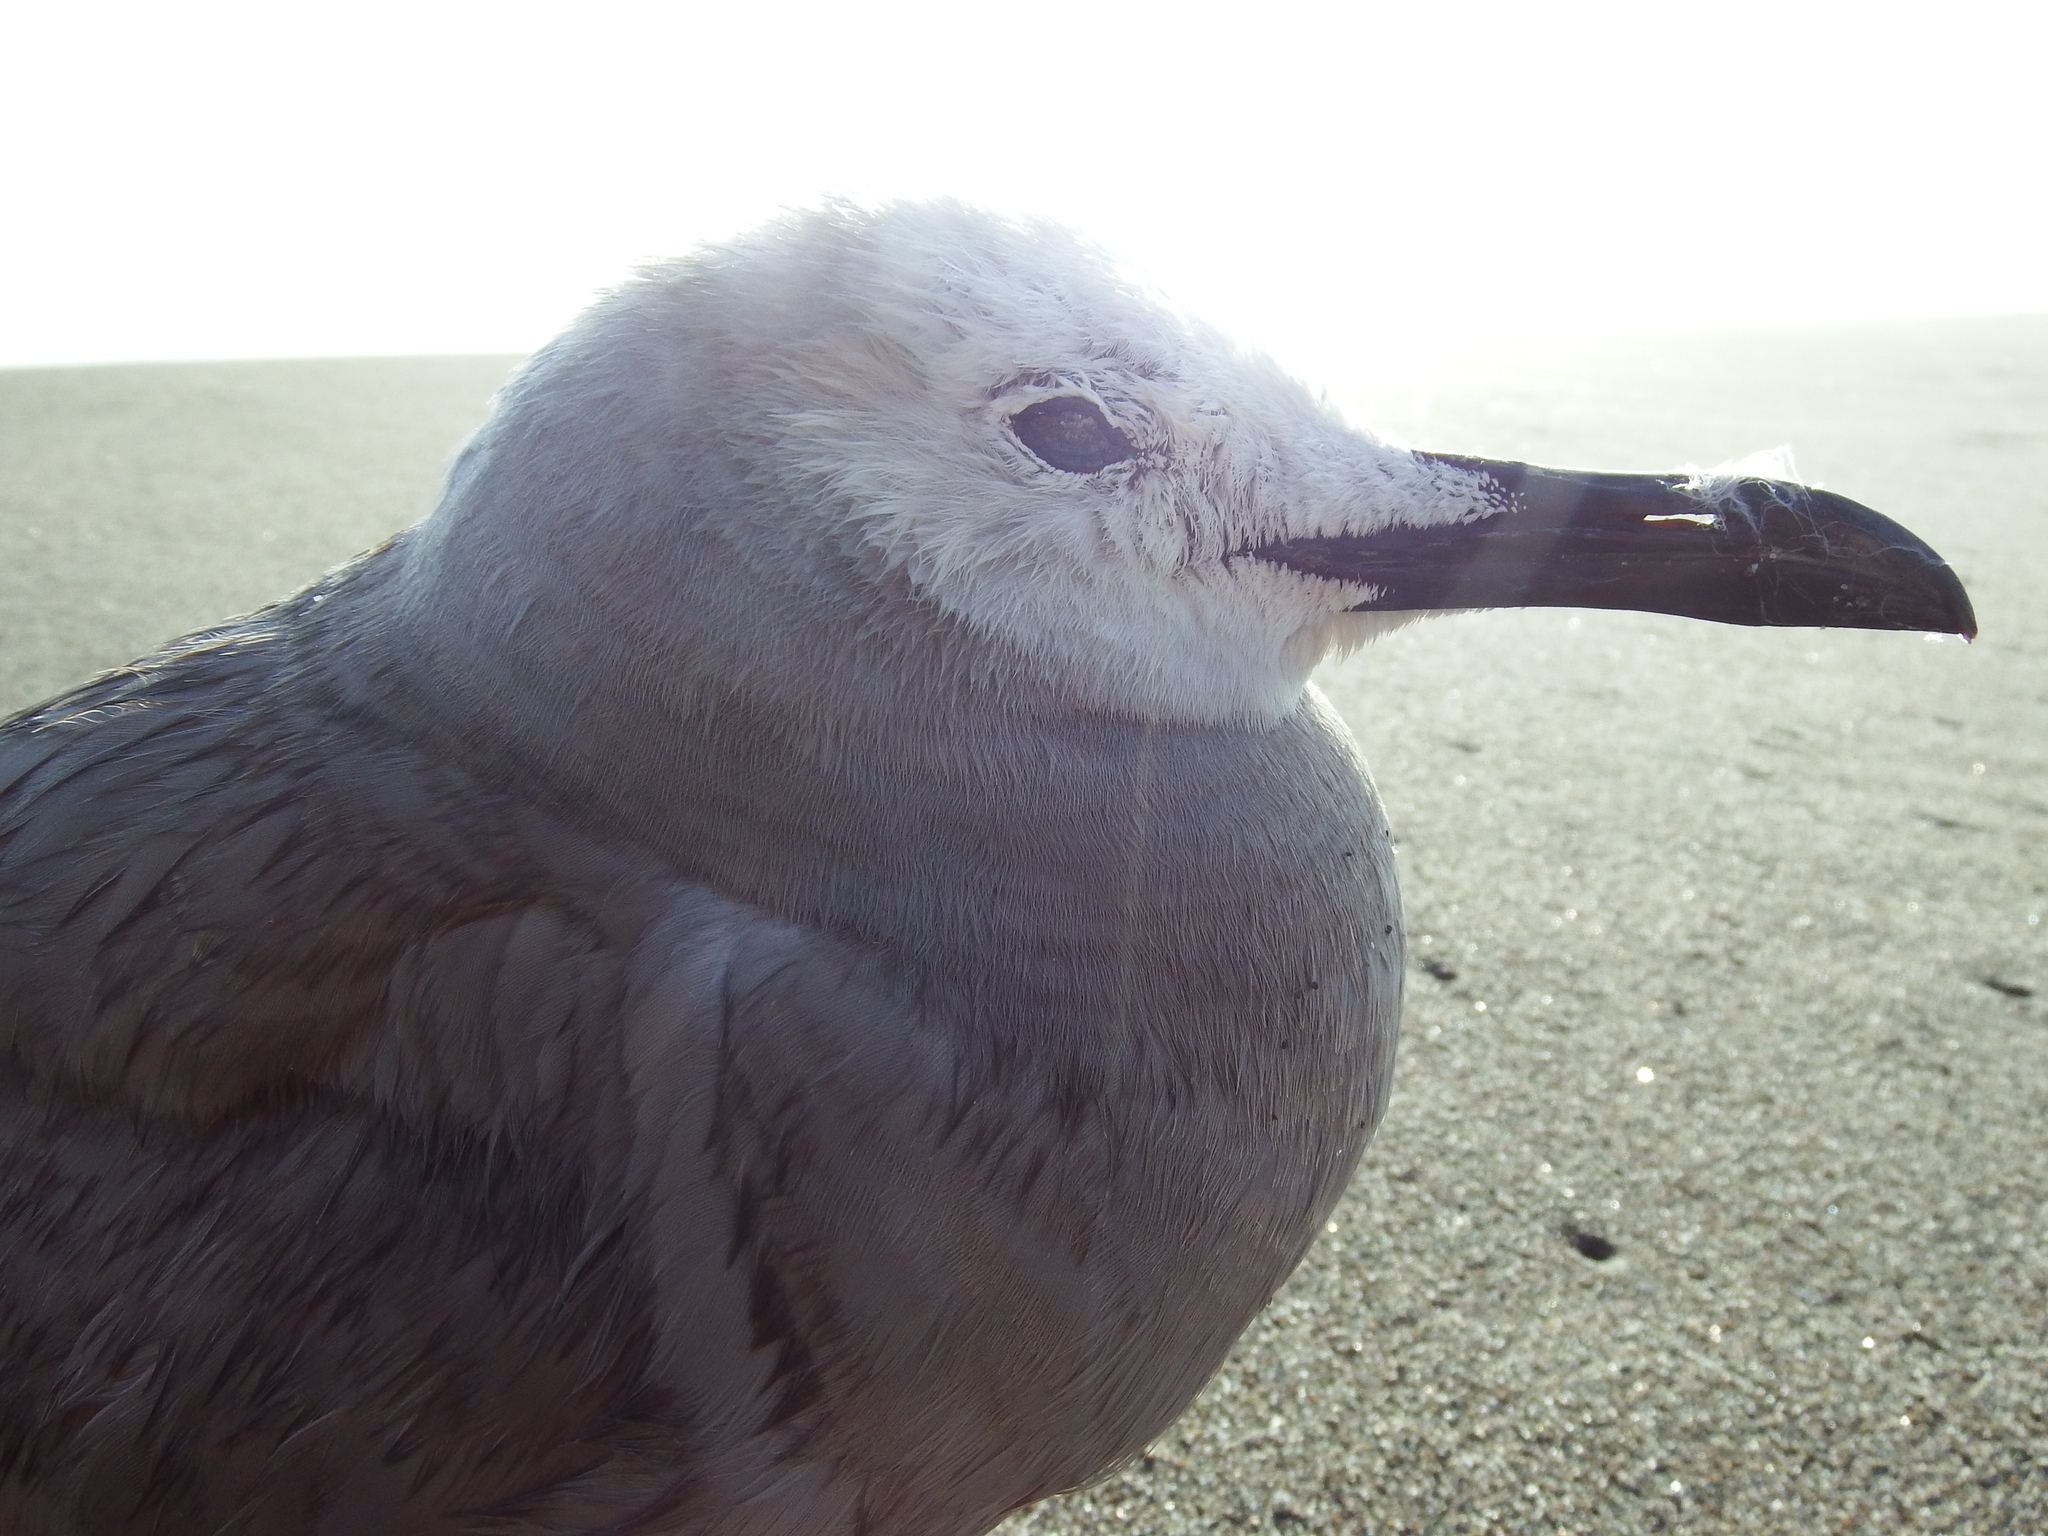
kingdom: Animalia
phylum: Chordata
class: Aves
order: Charadriiformes
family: Laridae
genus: Leucophaeus
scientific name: Leucophaeus modestus
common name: Gray gull
